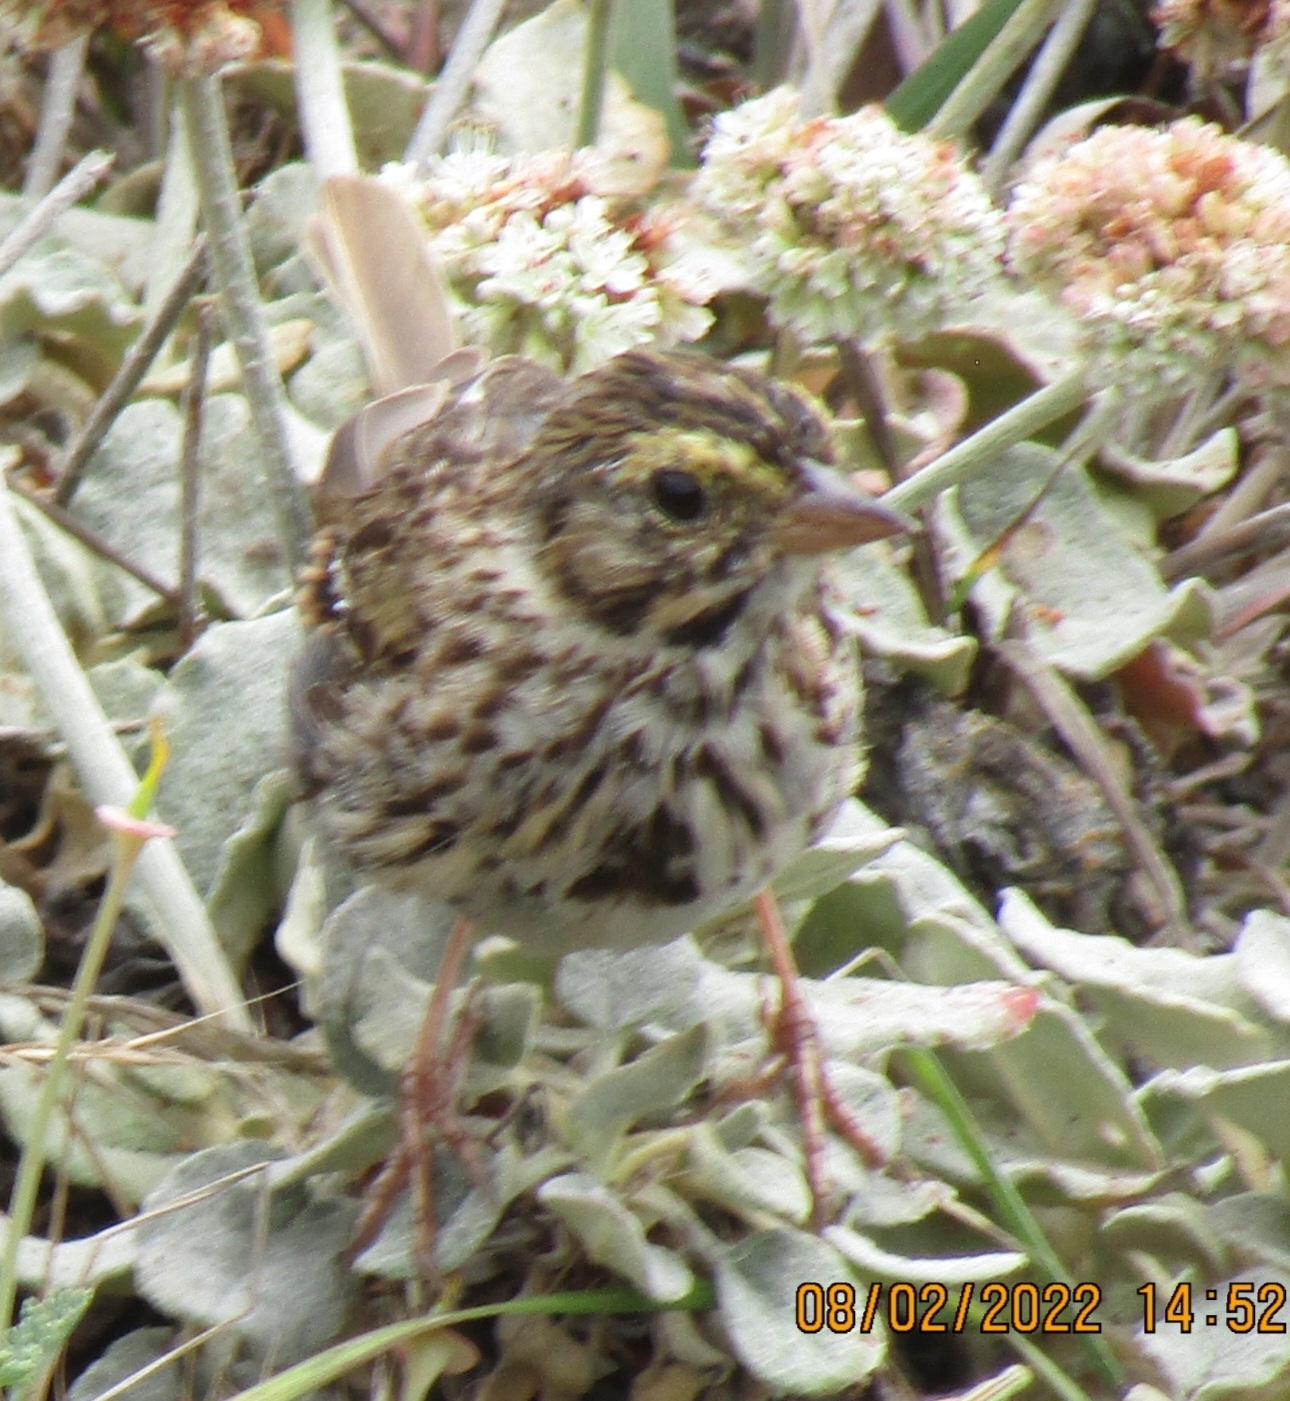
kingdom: Animalia
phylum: Chordata
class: Aves
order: Passeriformes
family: Passerellidae
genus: Passerculus
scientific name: Passerculus sandwichensis
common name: Savannah sparrow
